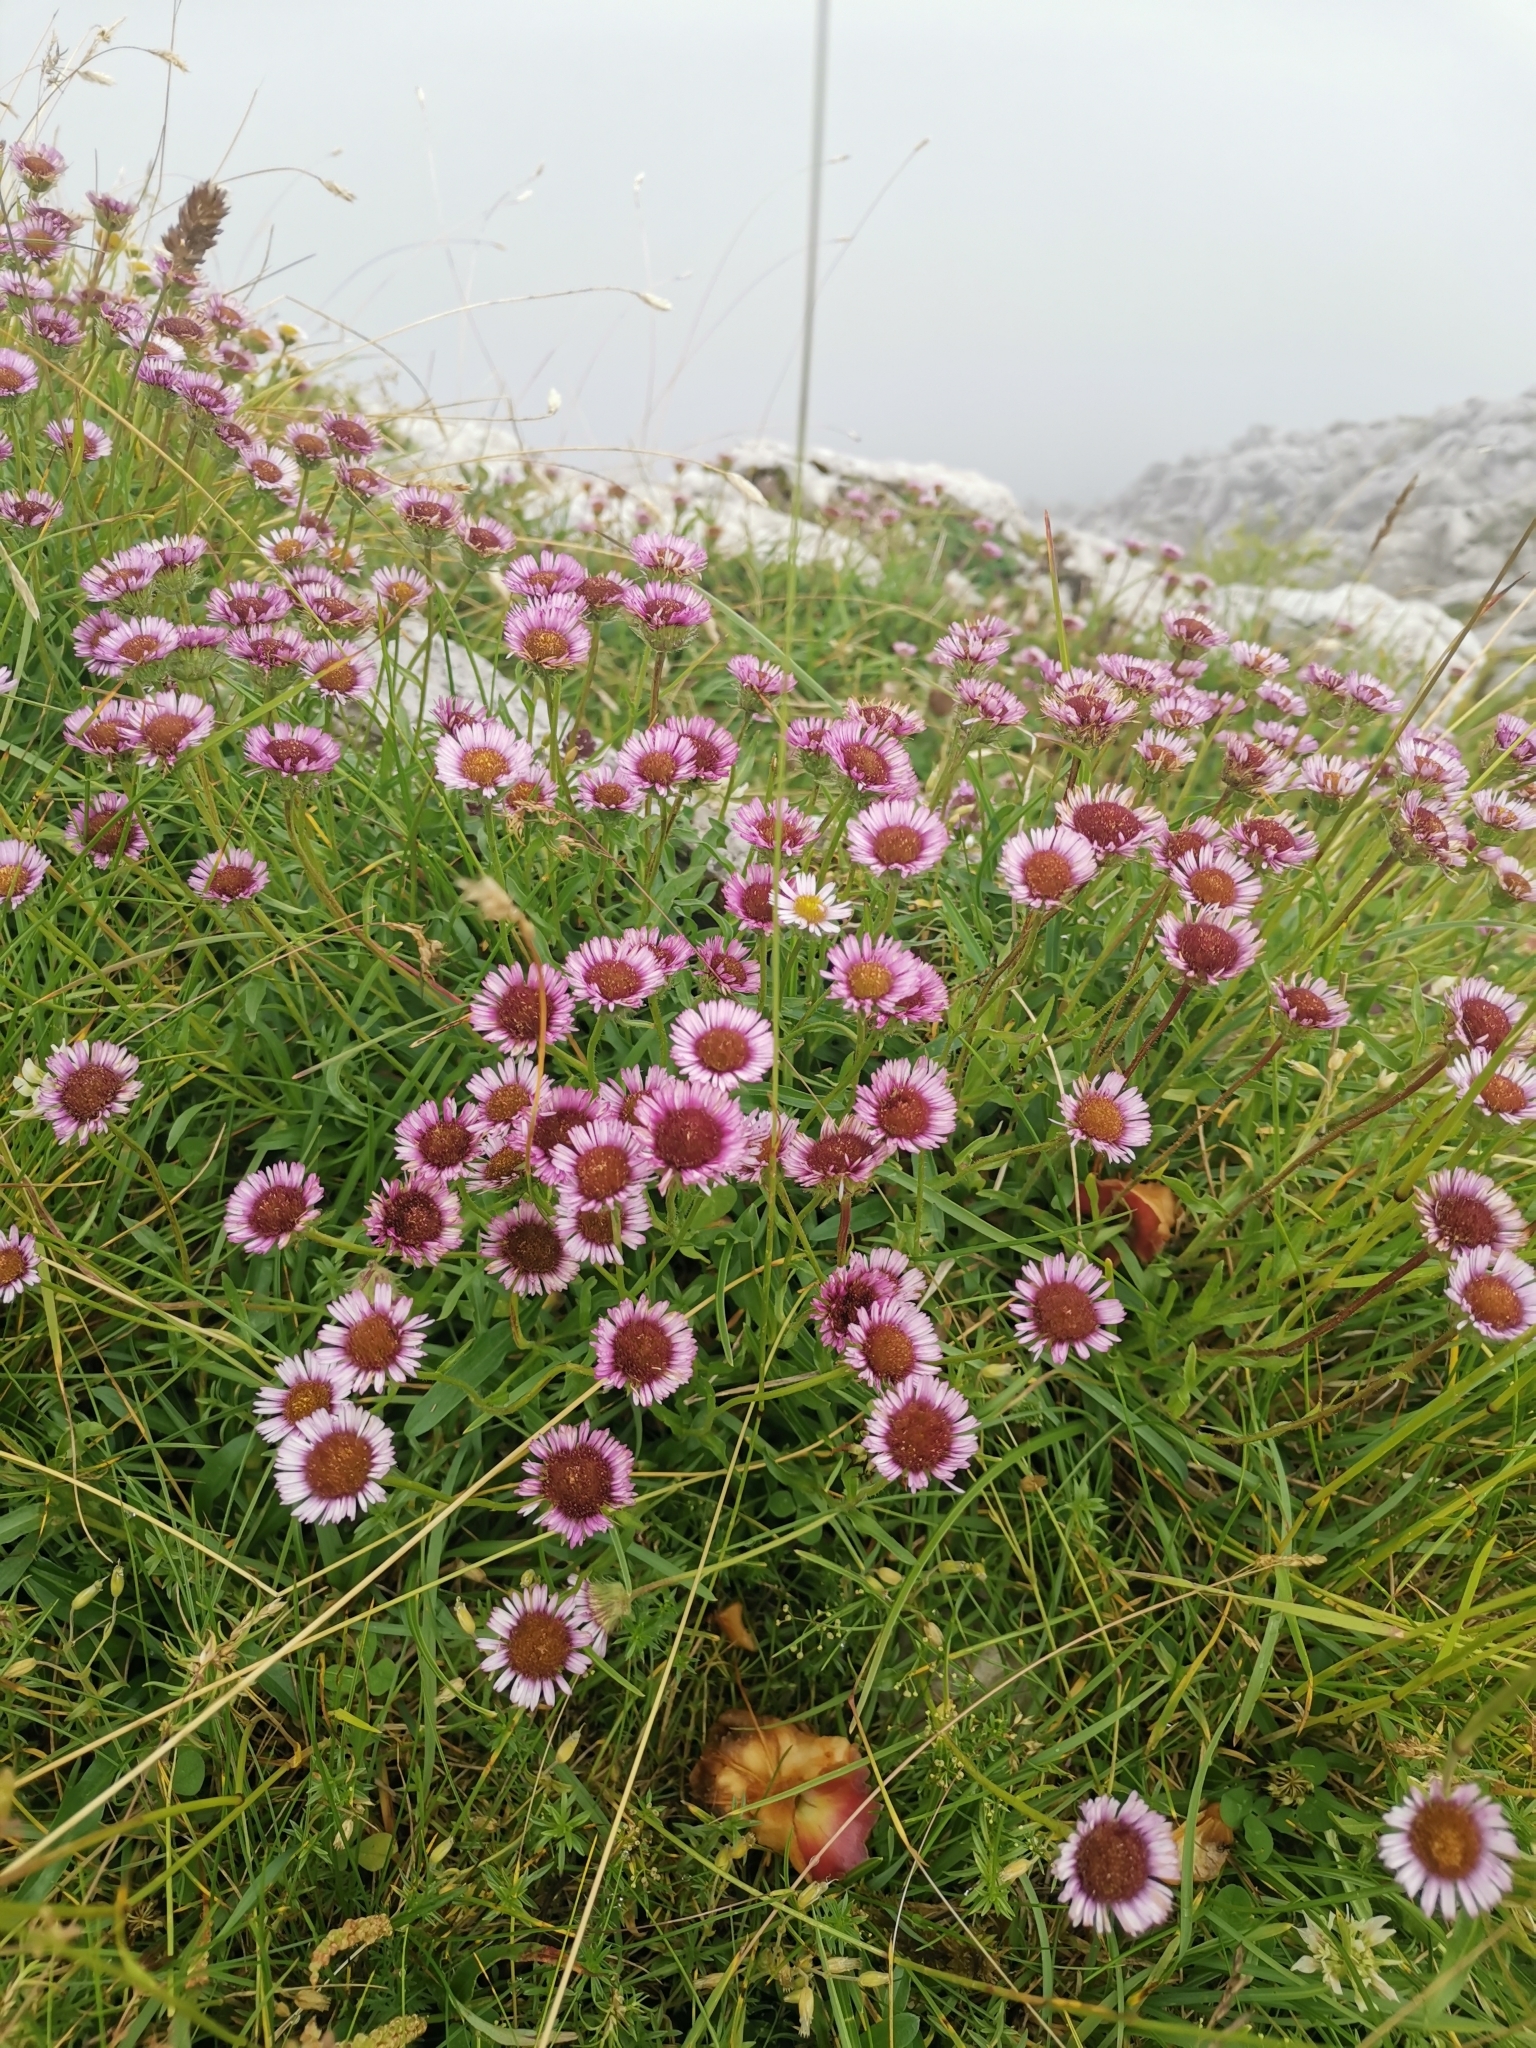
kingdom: Plantae
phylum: Tracheophyta
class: Magnoliopsida
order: Asterales
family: Asteraceae
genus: Erigeron
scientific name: Erigeron glabratus
